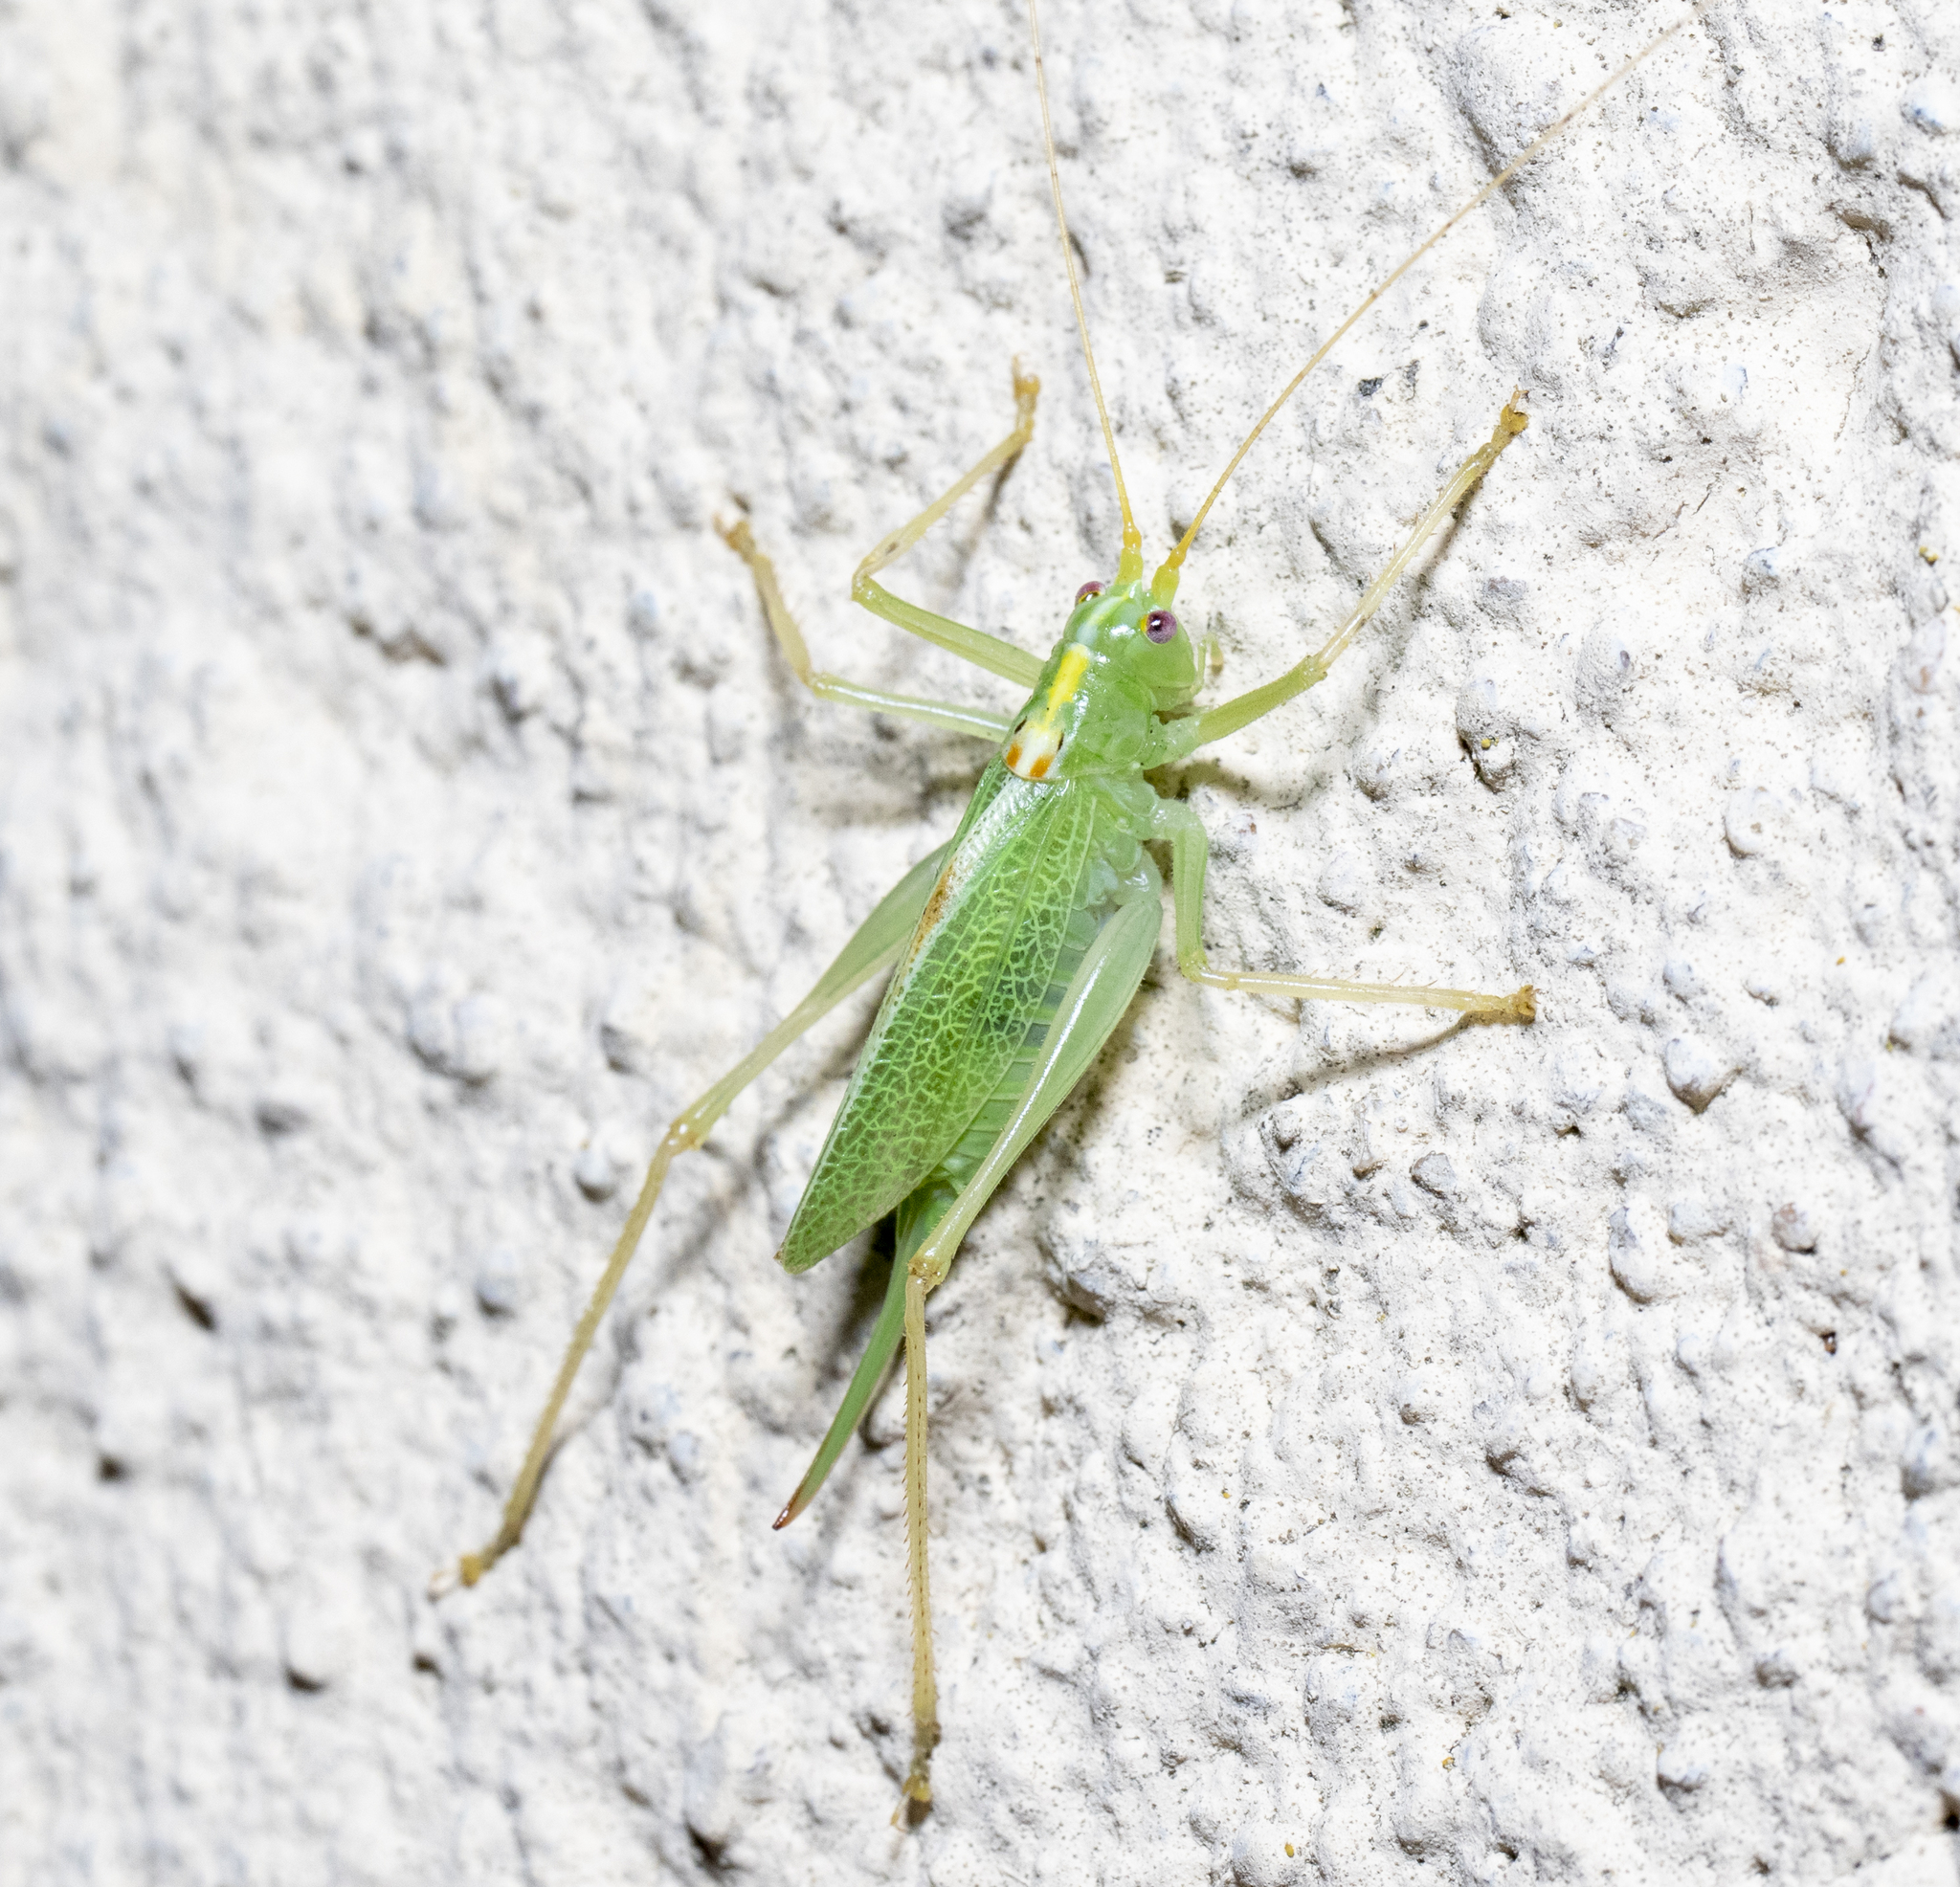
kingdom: Animalia
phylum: Arthropoda
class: Insecta
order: Orthoptera
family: Tettigoniidae
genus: Meconema
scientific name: Meconema thalassinum
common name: Oak bush-cricket
